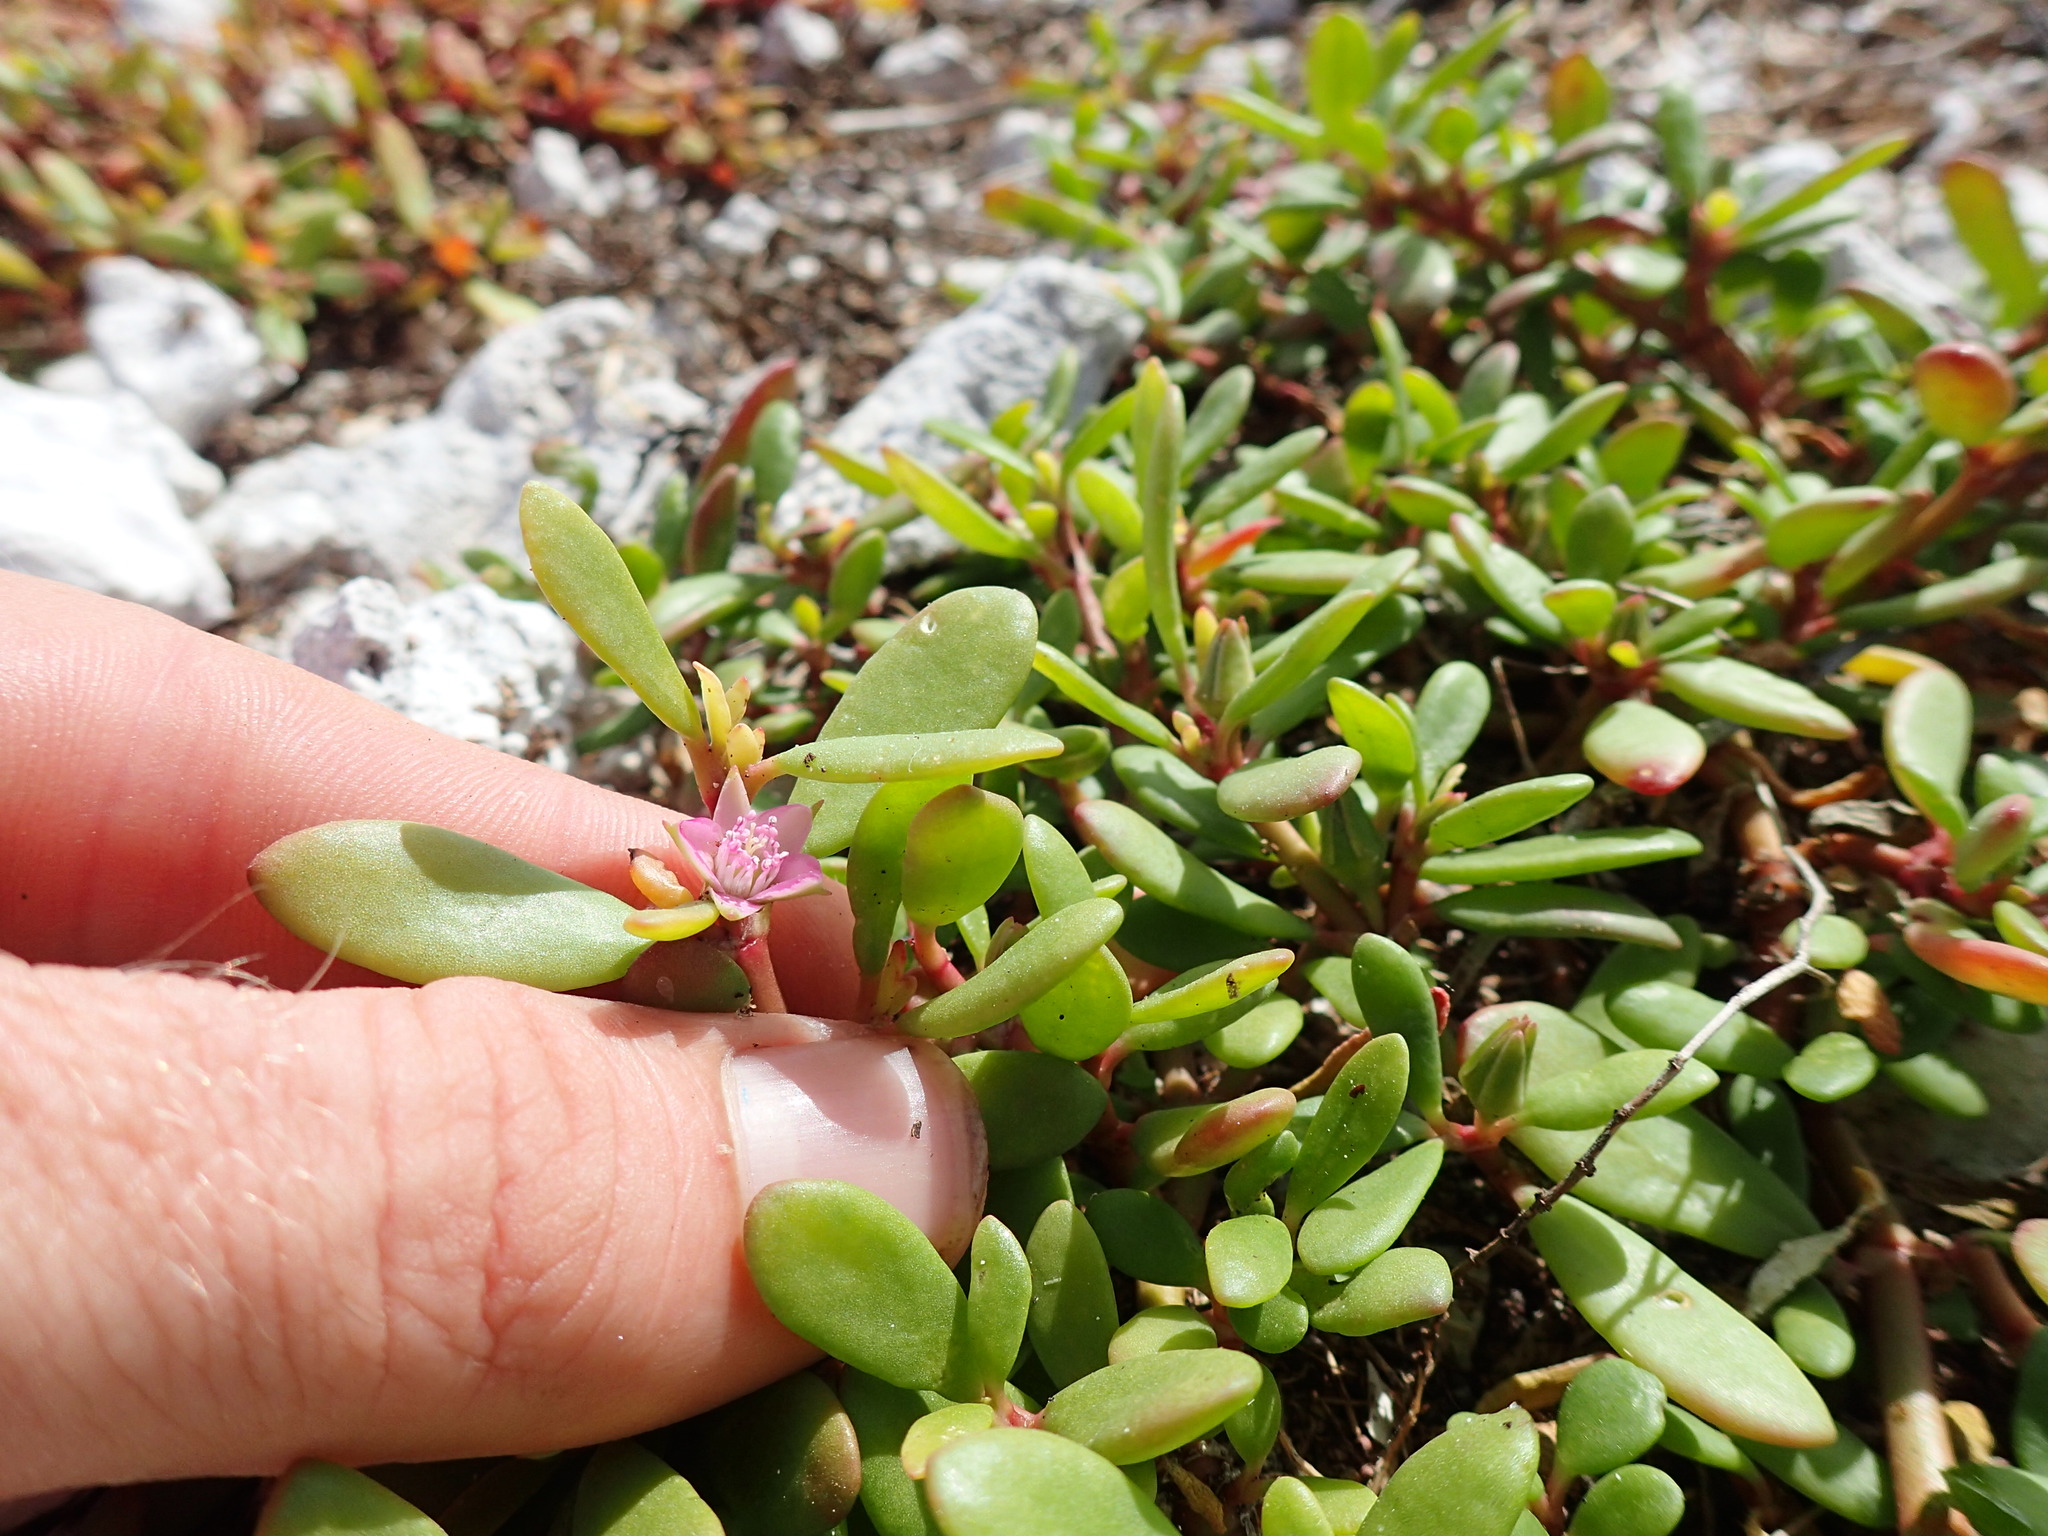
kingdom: Plantae
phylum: Tracheophyta
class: Magnoliopsida
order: Caryophyllales
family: Aizoaceae
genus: Sesuvium
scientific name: Sesuvium portulacastrum
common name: Sea-purslane
